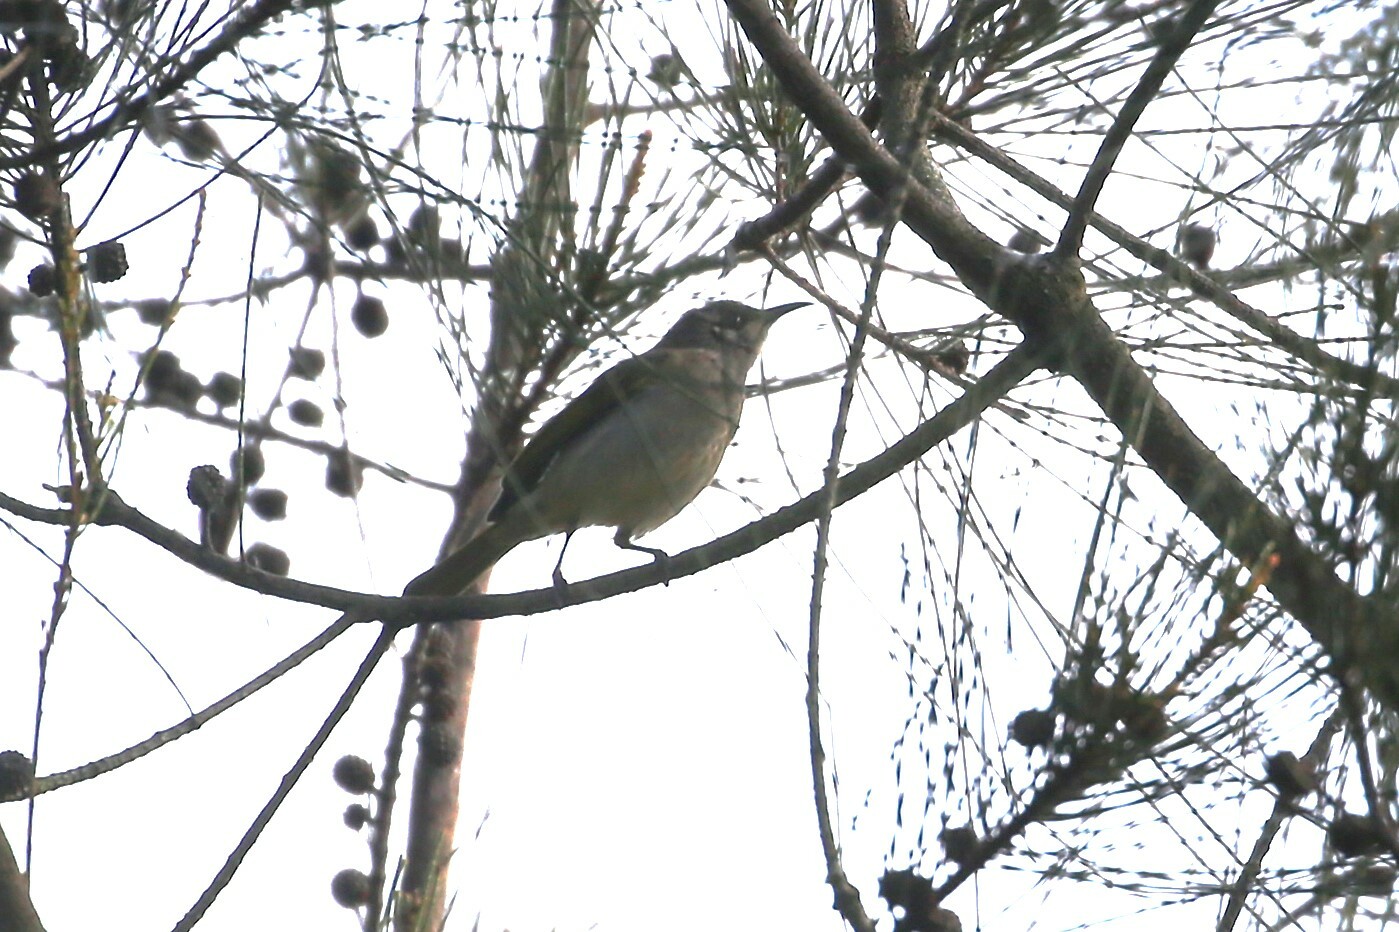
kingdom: Animalia
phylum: Chordata
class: Aves
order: Passeriformes
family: Meliphagidae
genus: Lichmera
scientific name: Lichmera indistincta
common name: Brown honeyeater
